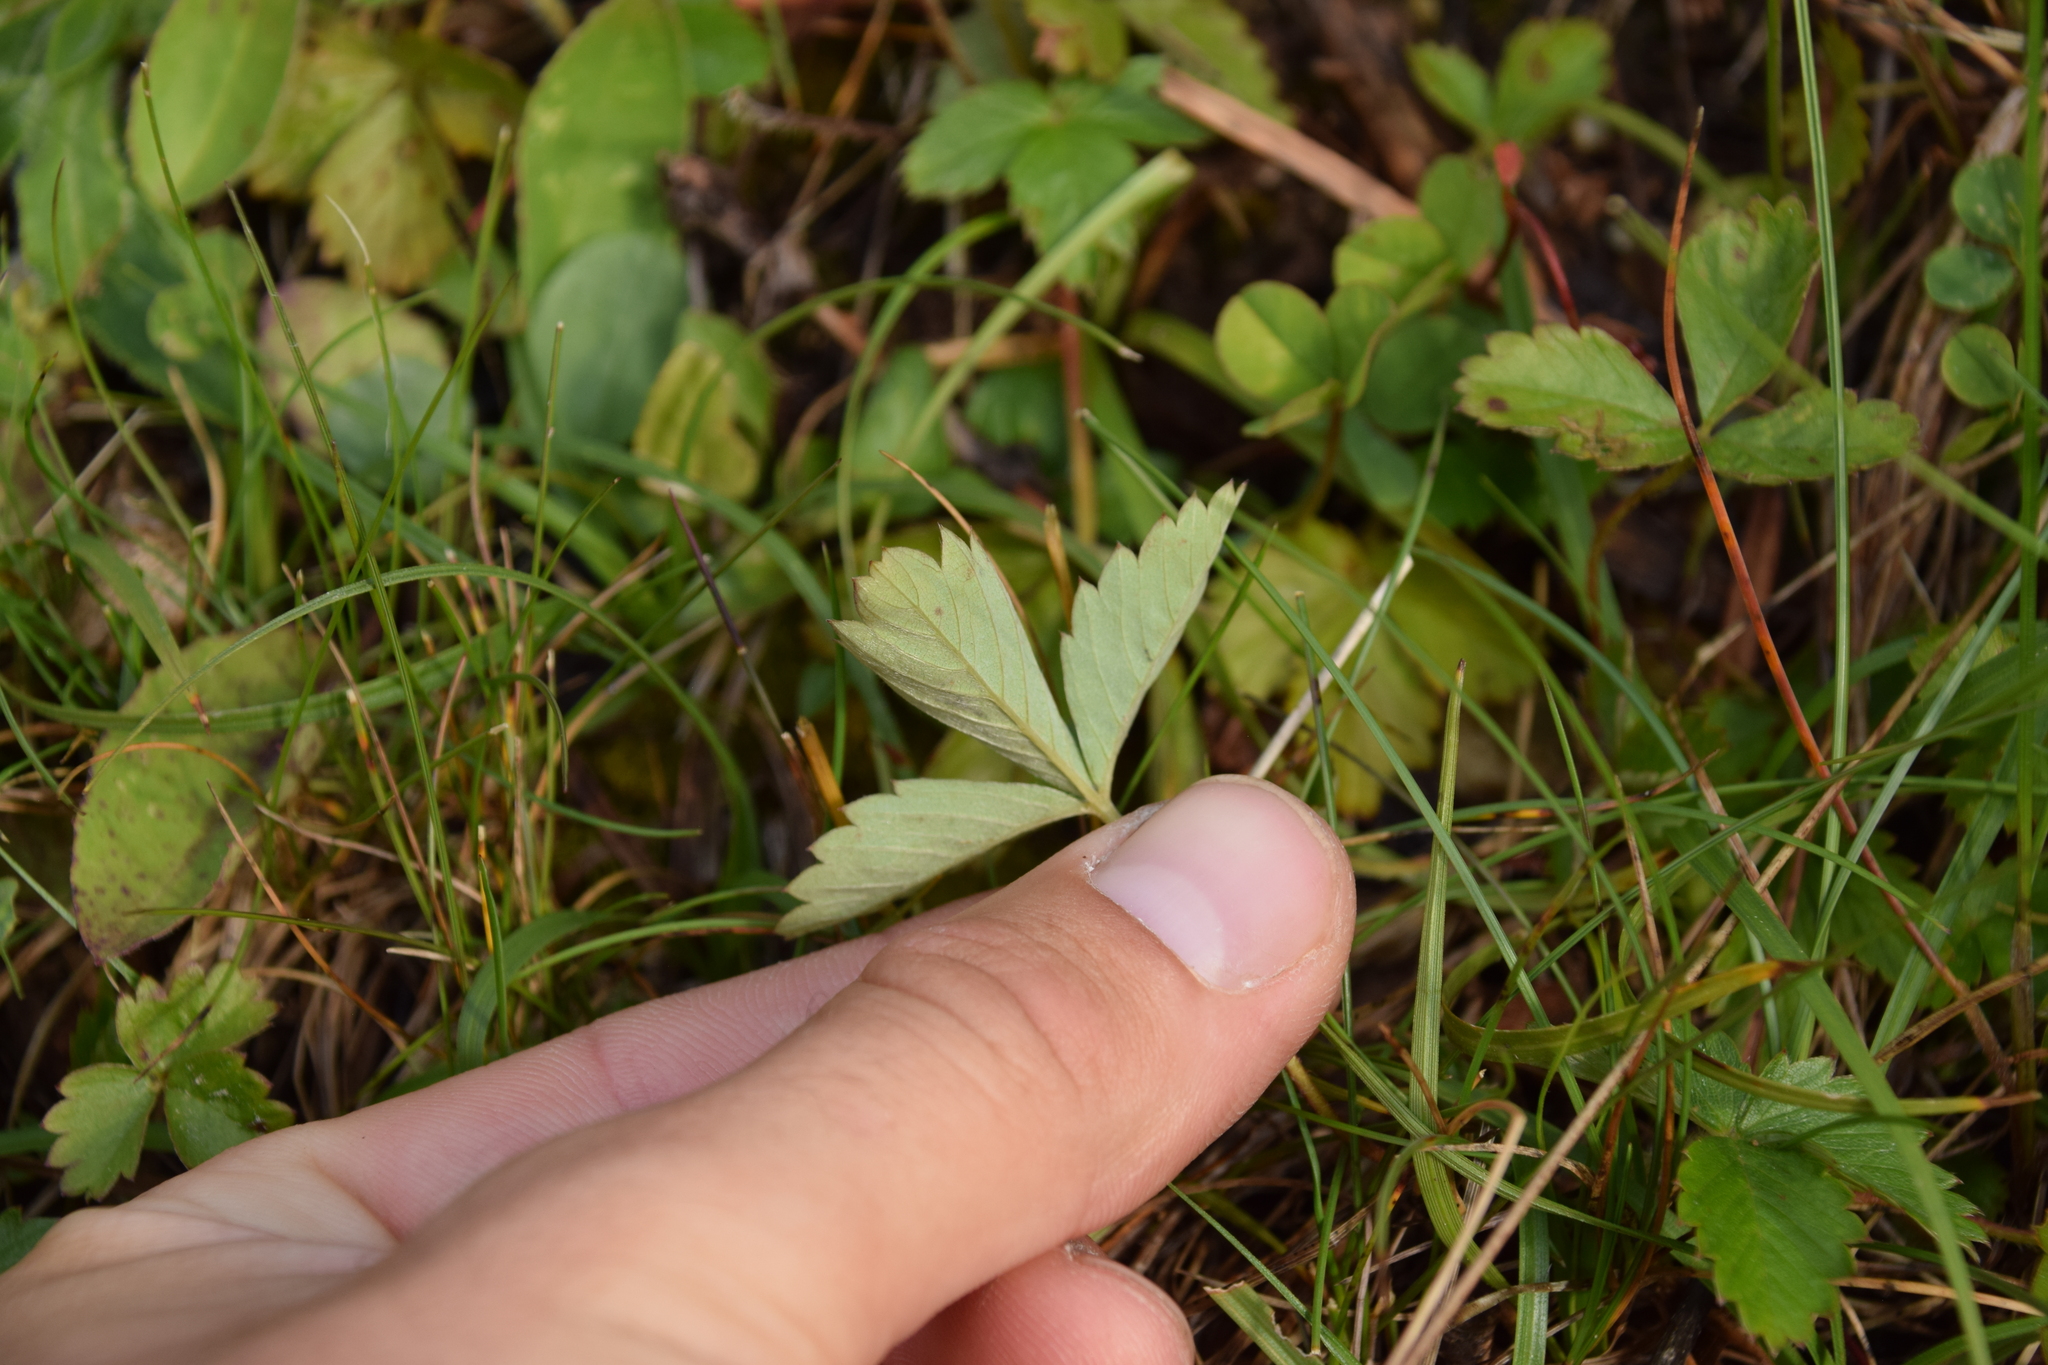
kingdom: Plantae
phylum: Tracheophyta
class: Magnoliopsida
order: Rosales
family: Rosaceae
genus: Fragaria
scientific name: Fragaria vesca
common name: Wild strawberry
